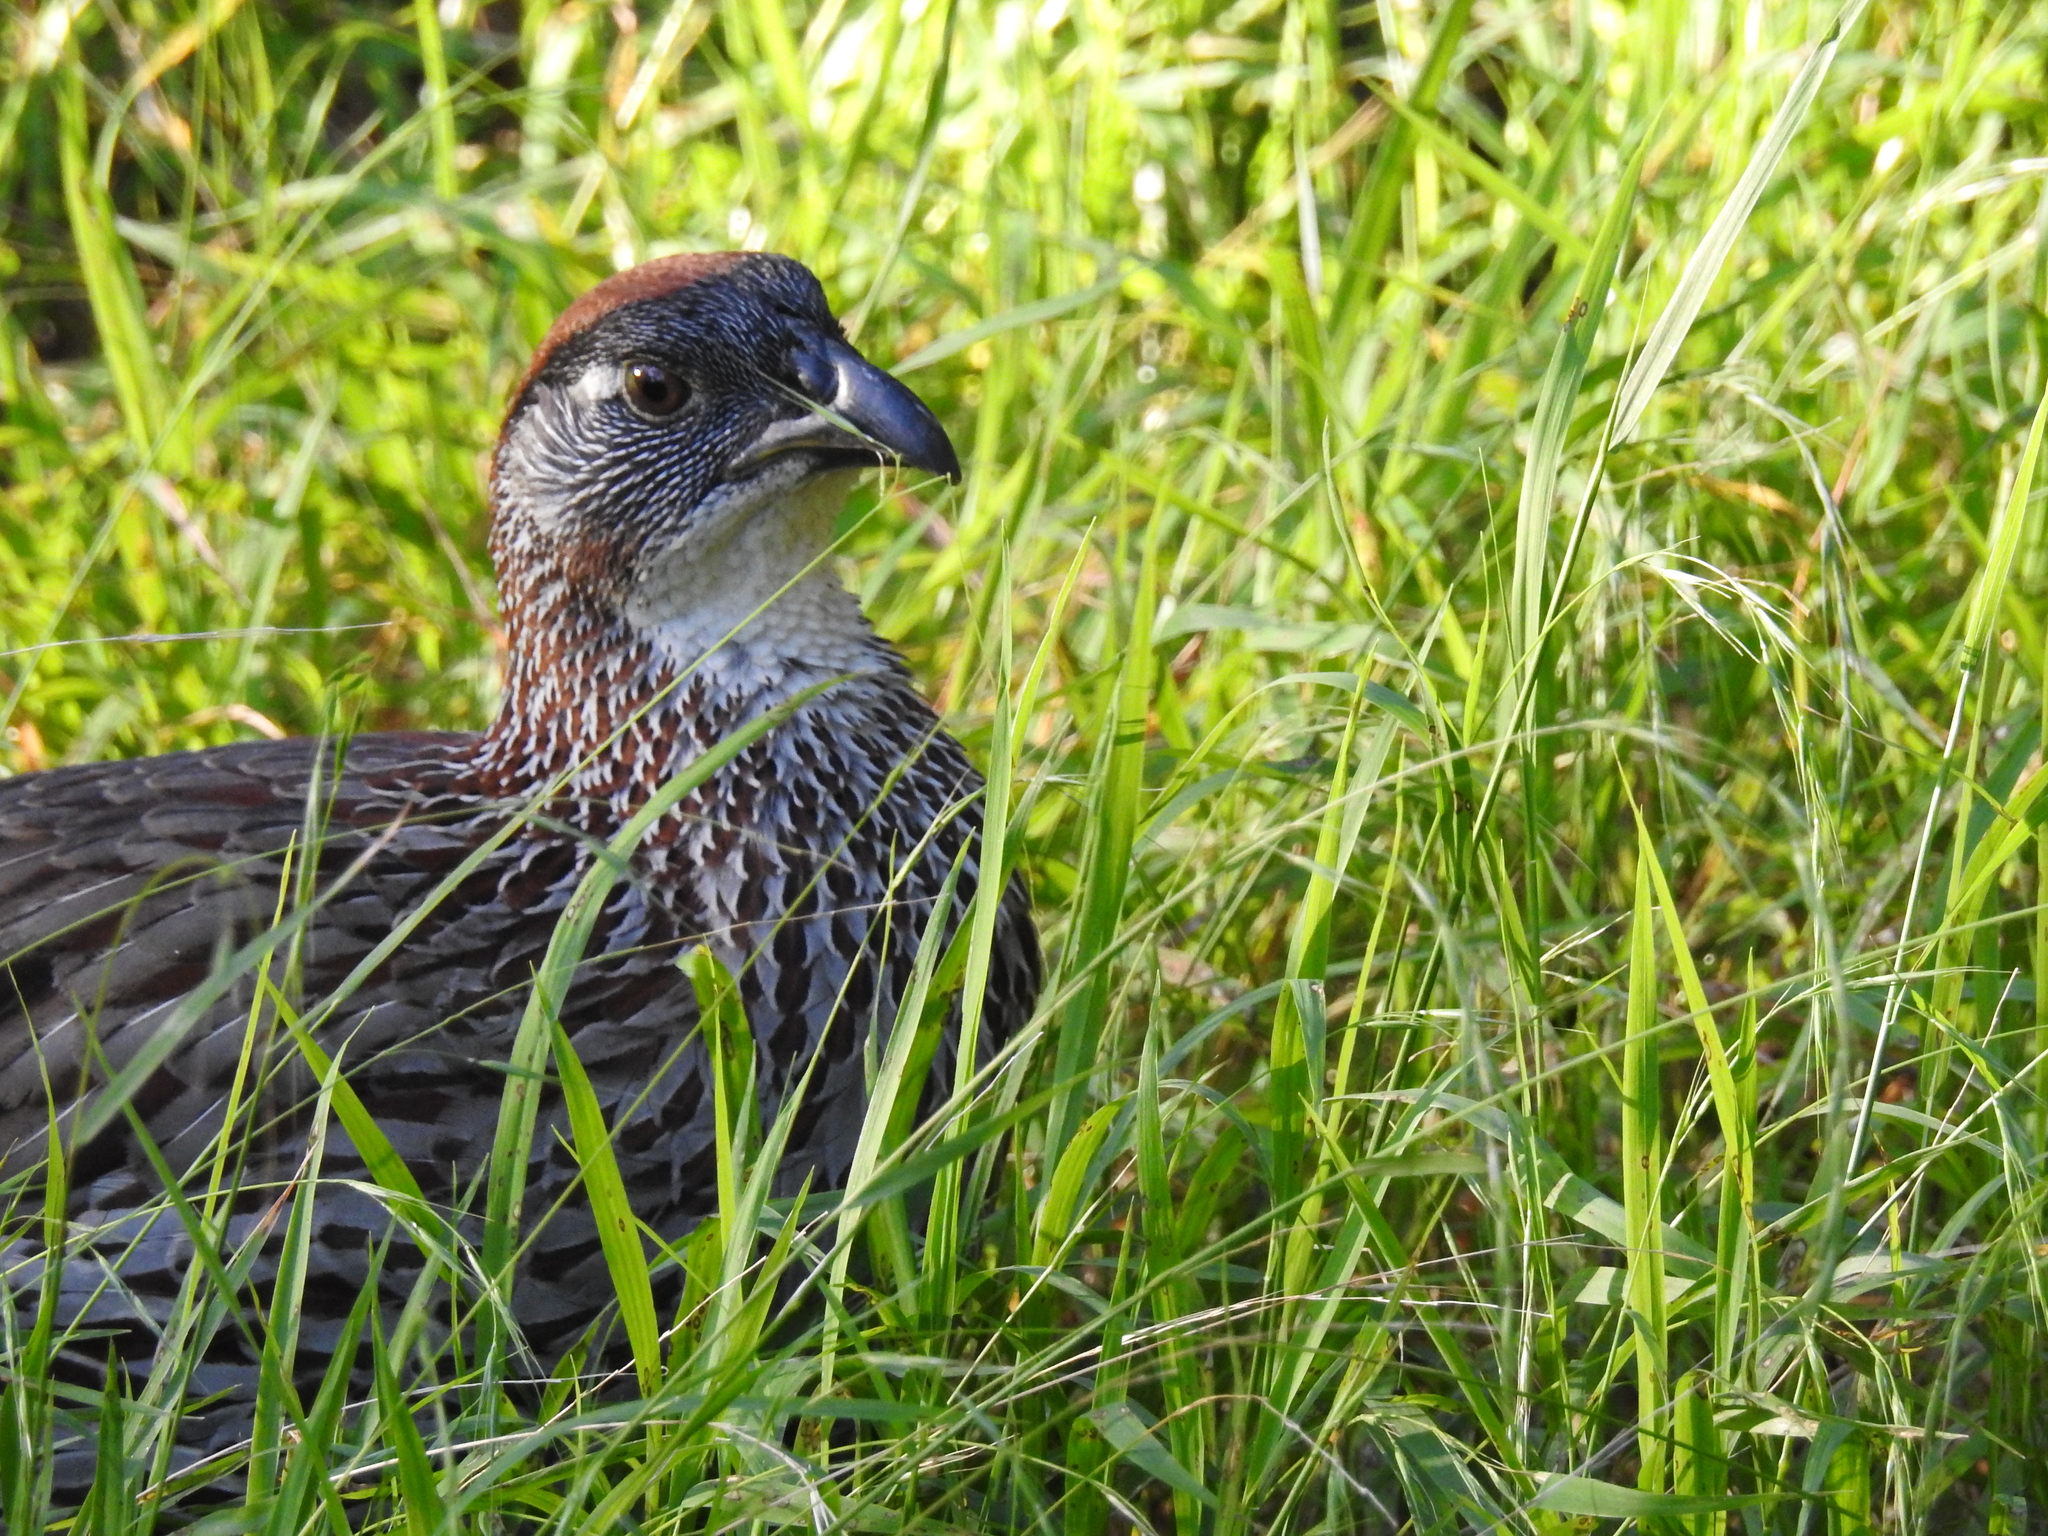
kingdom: Animalia
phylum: Chordata
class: Aves
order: Galliformes
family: Phasianidae
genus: Pternistis
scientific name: Pternistis erckelii
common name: Erckel's francolin
